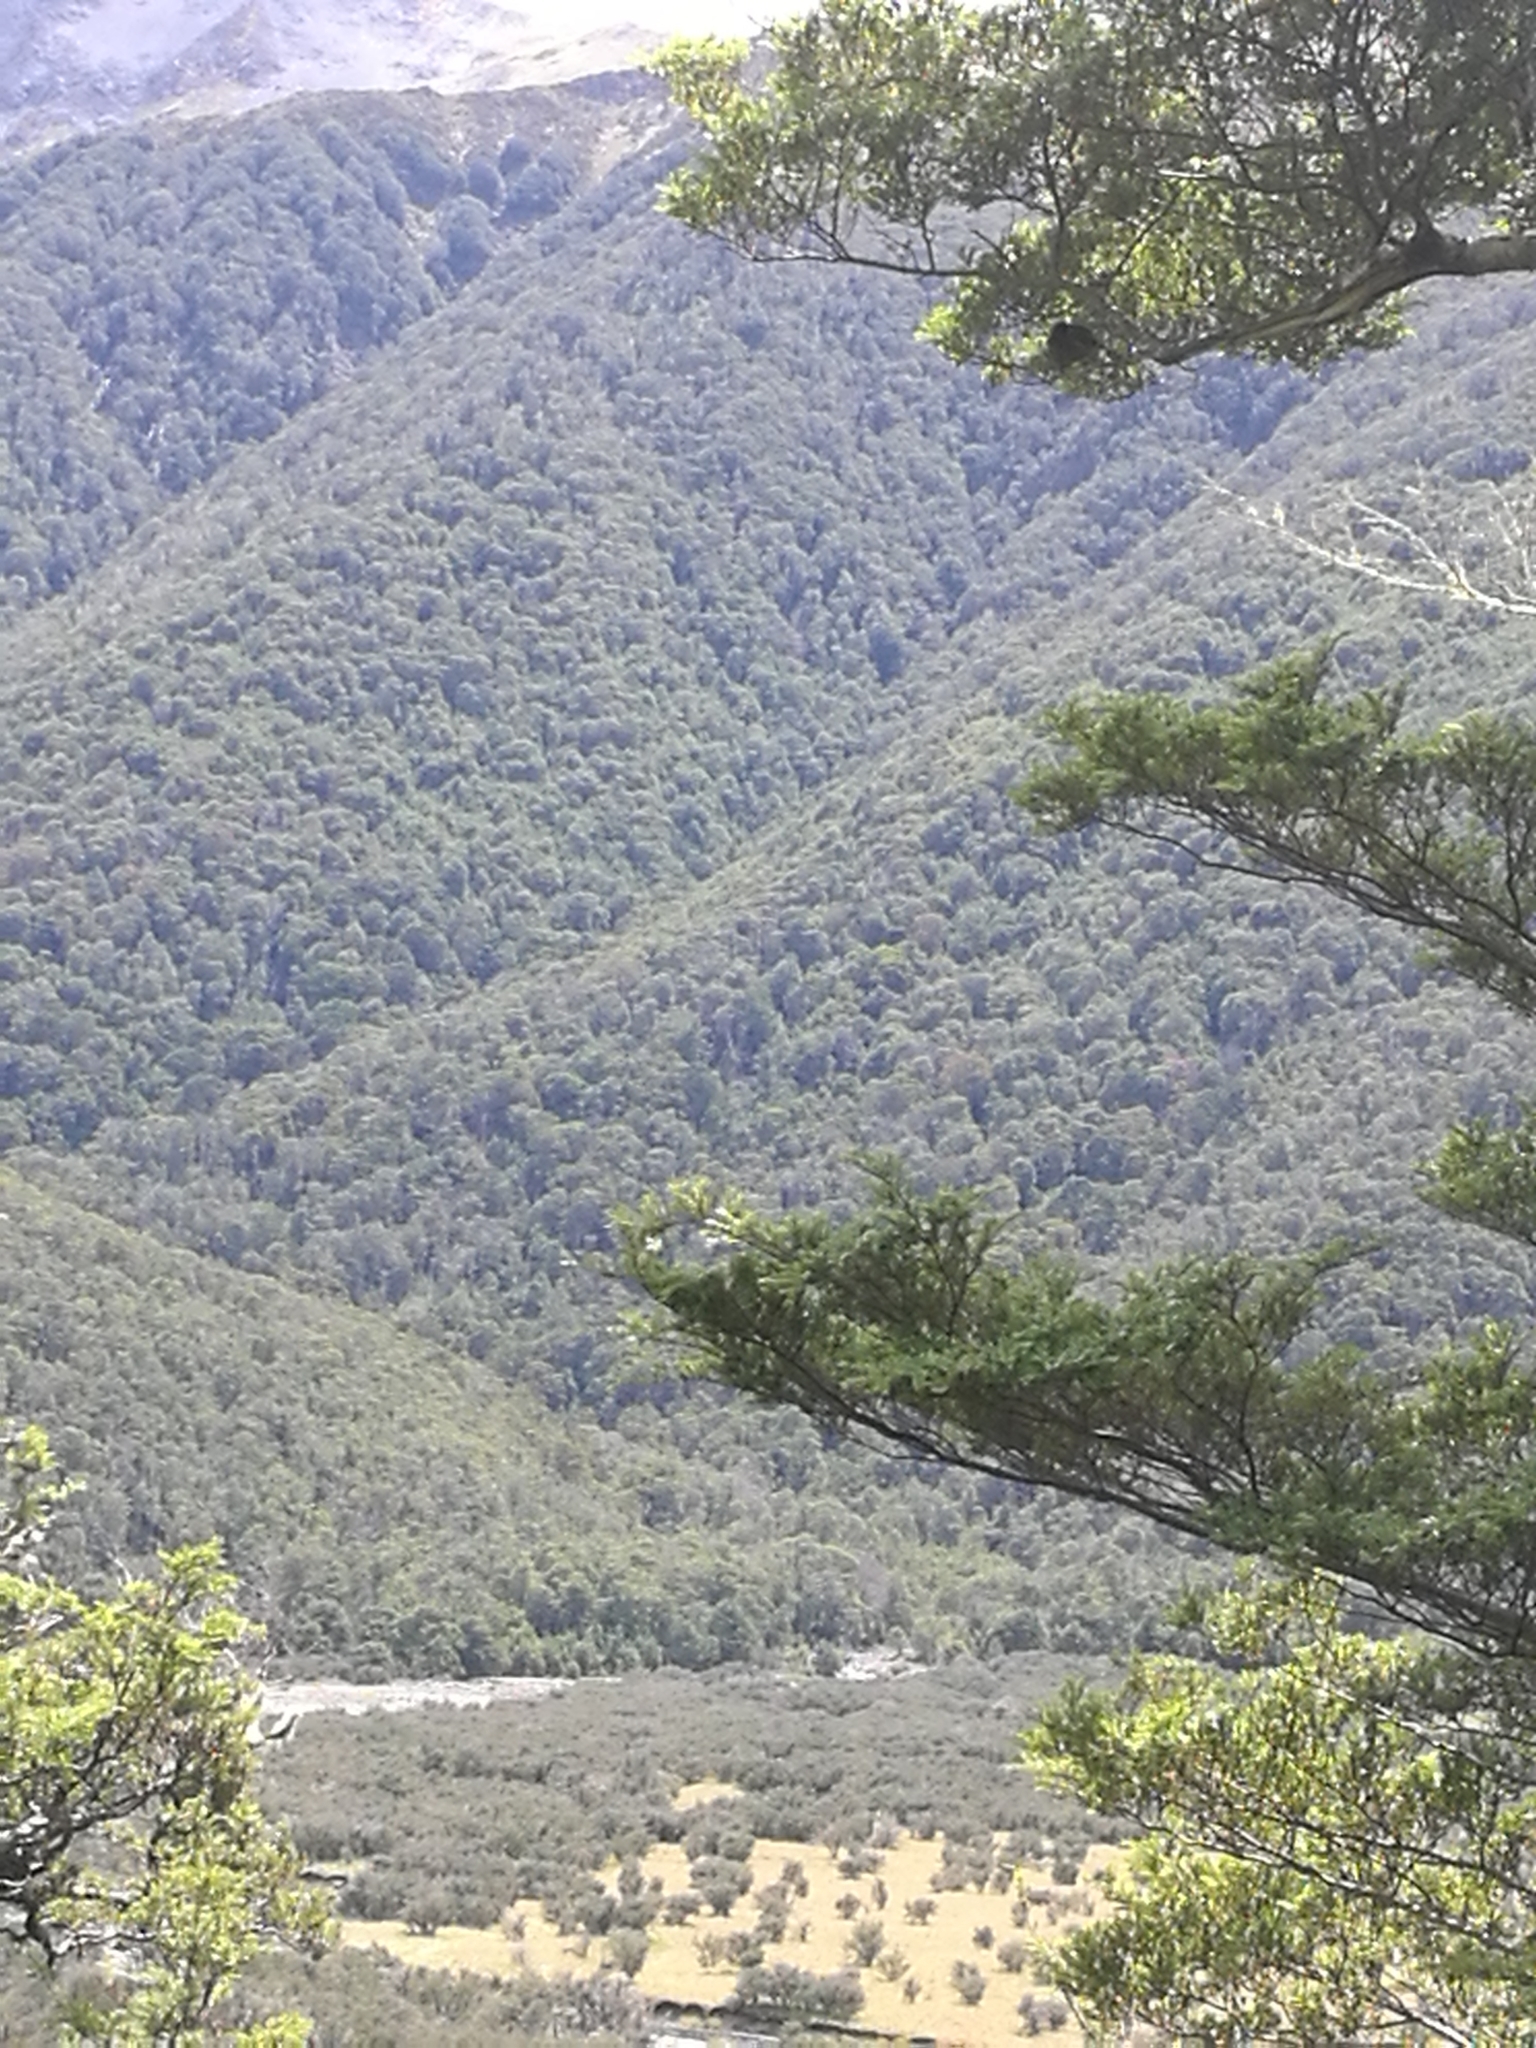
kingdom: Animalia
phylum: Chordata
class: Aves
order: Passeriformes
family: Meliphagidae
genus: Anthornis
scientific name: Anthornis melanura
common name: New zealand bellbird
